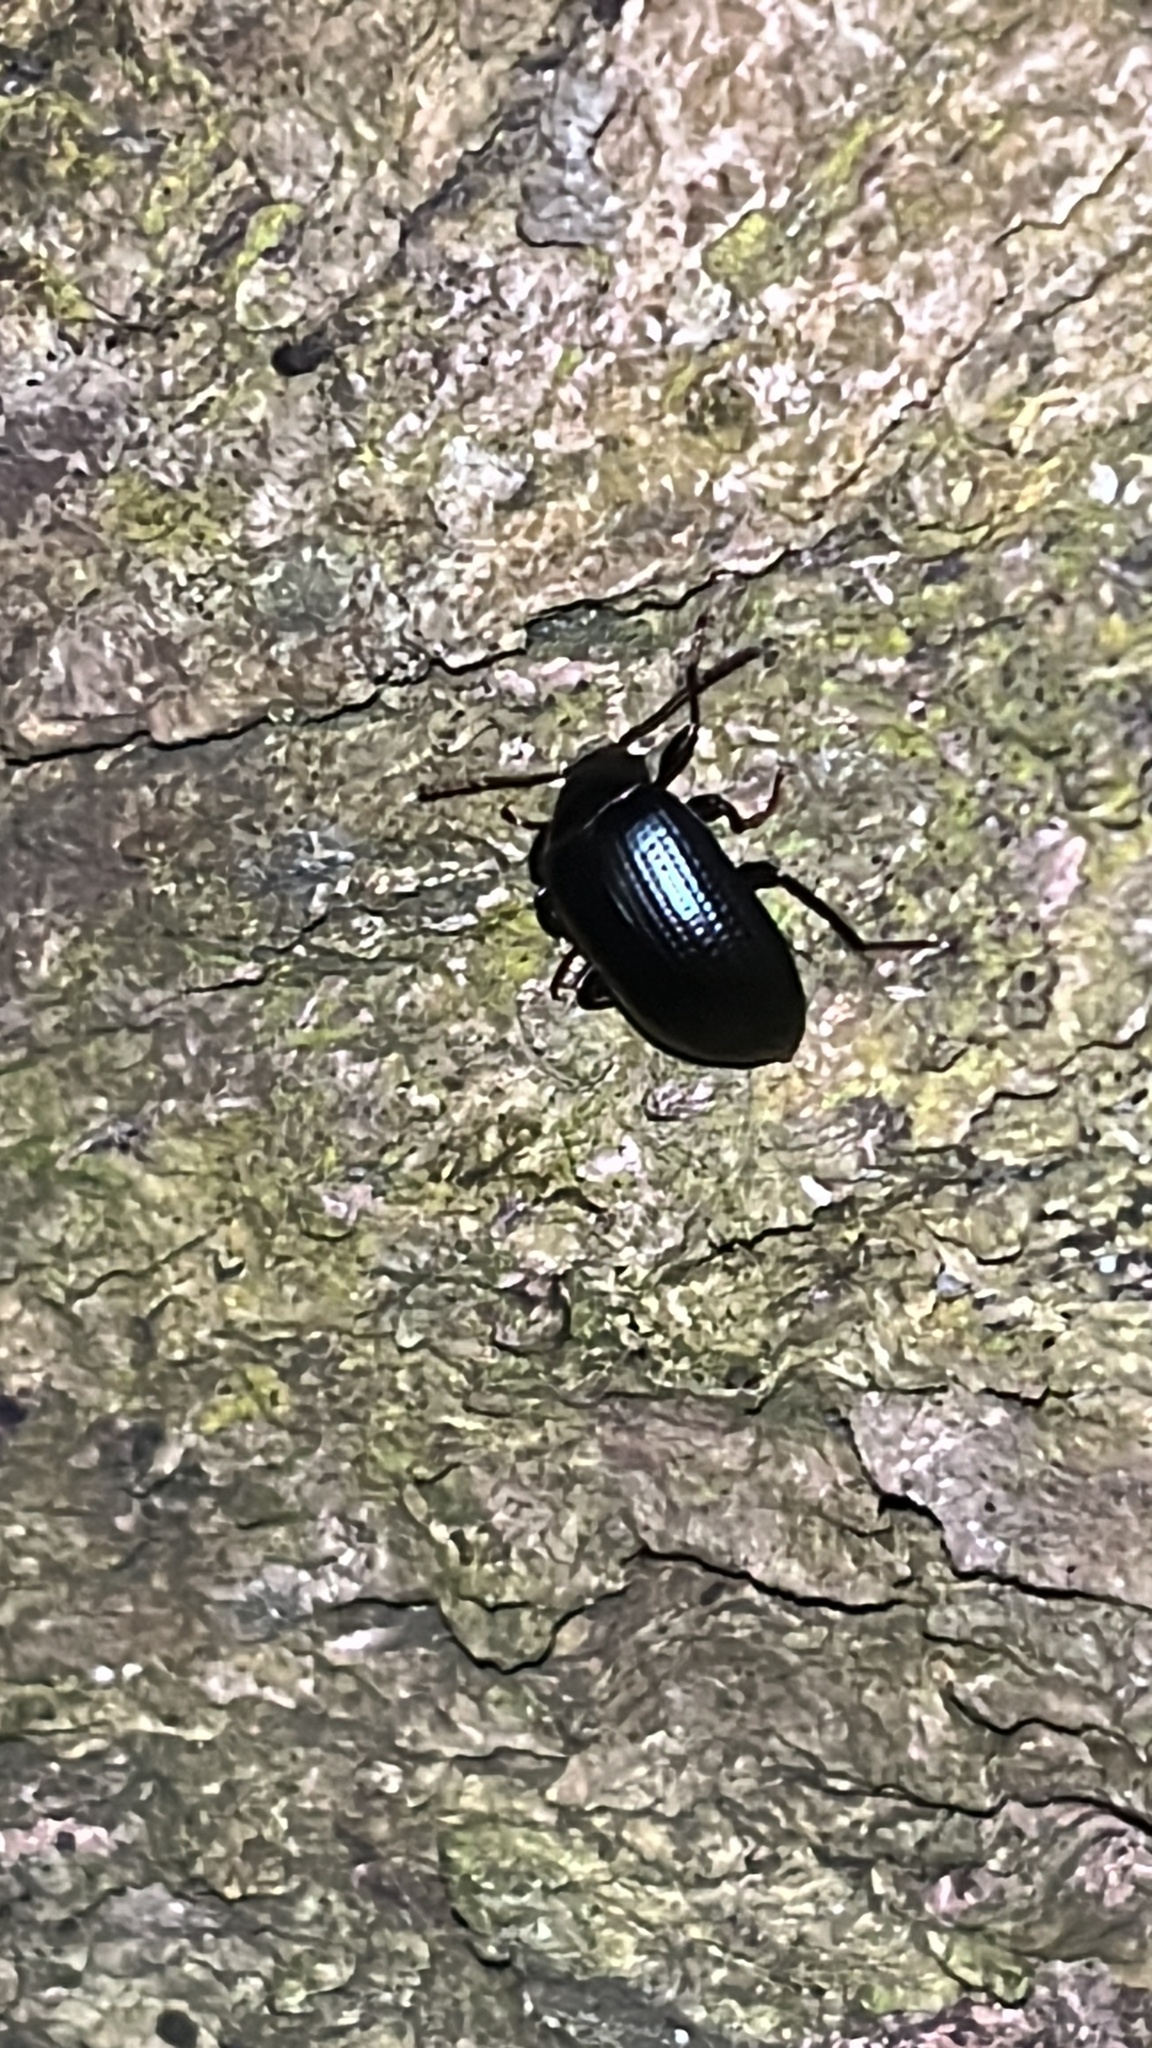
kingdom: Animalia
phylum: Arthropoda
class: Insecta
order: Coleoptera
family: Tenebrionidae
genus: Amarygmus
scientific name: Amarygmus
